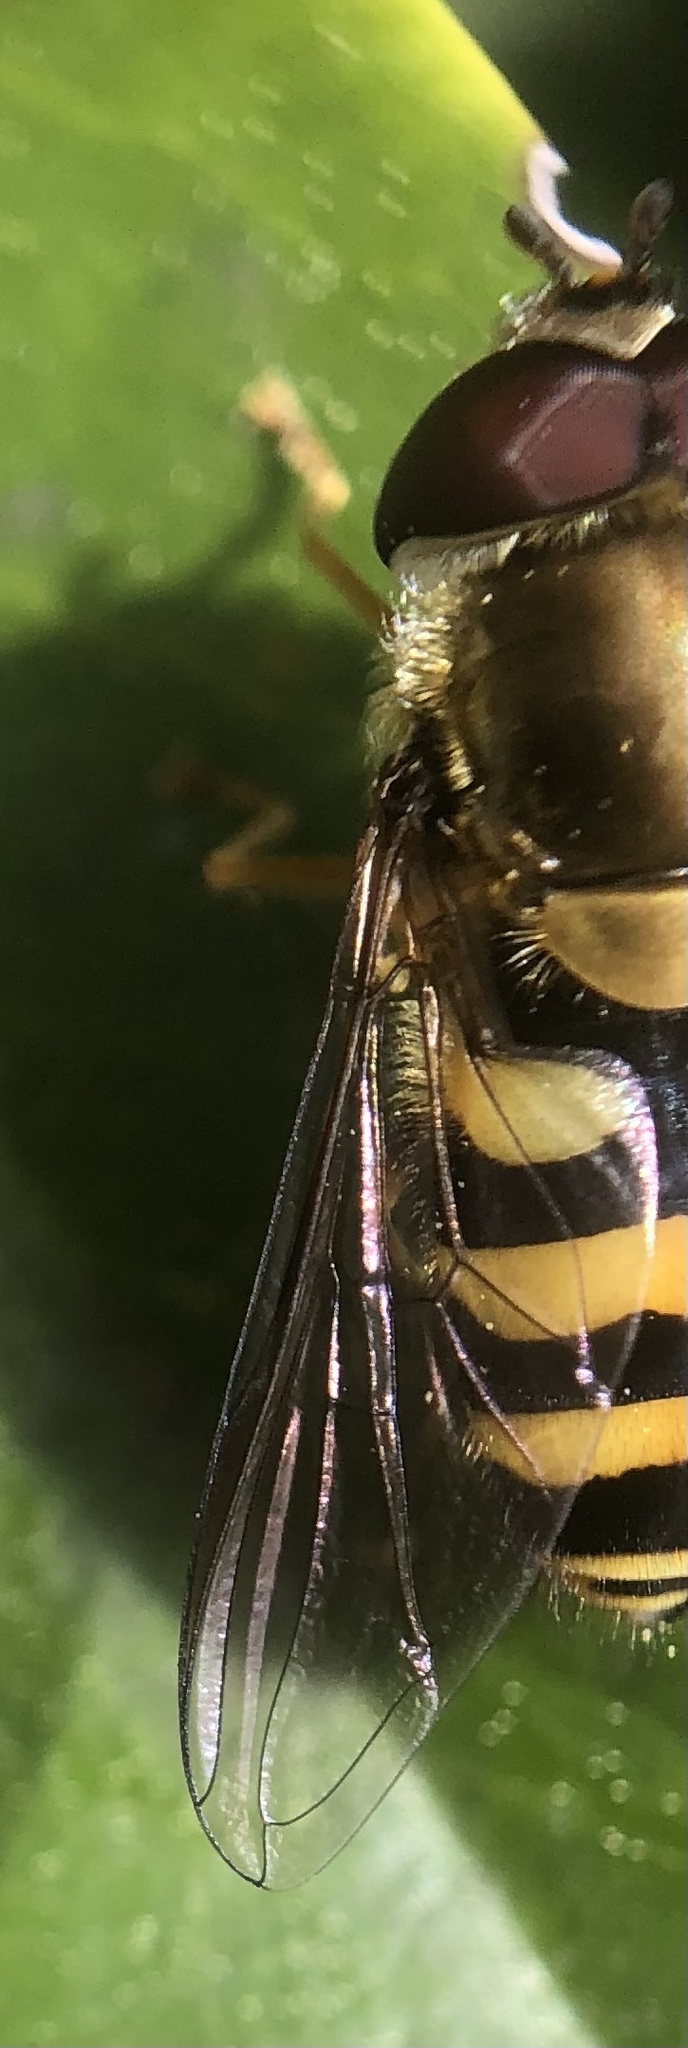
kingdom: Animalia
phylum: Arthropoda
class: Insecta
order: Diptera
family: Syrphidae
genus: Syrphus
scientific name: Syrphus
